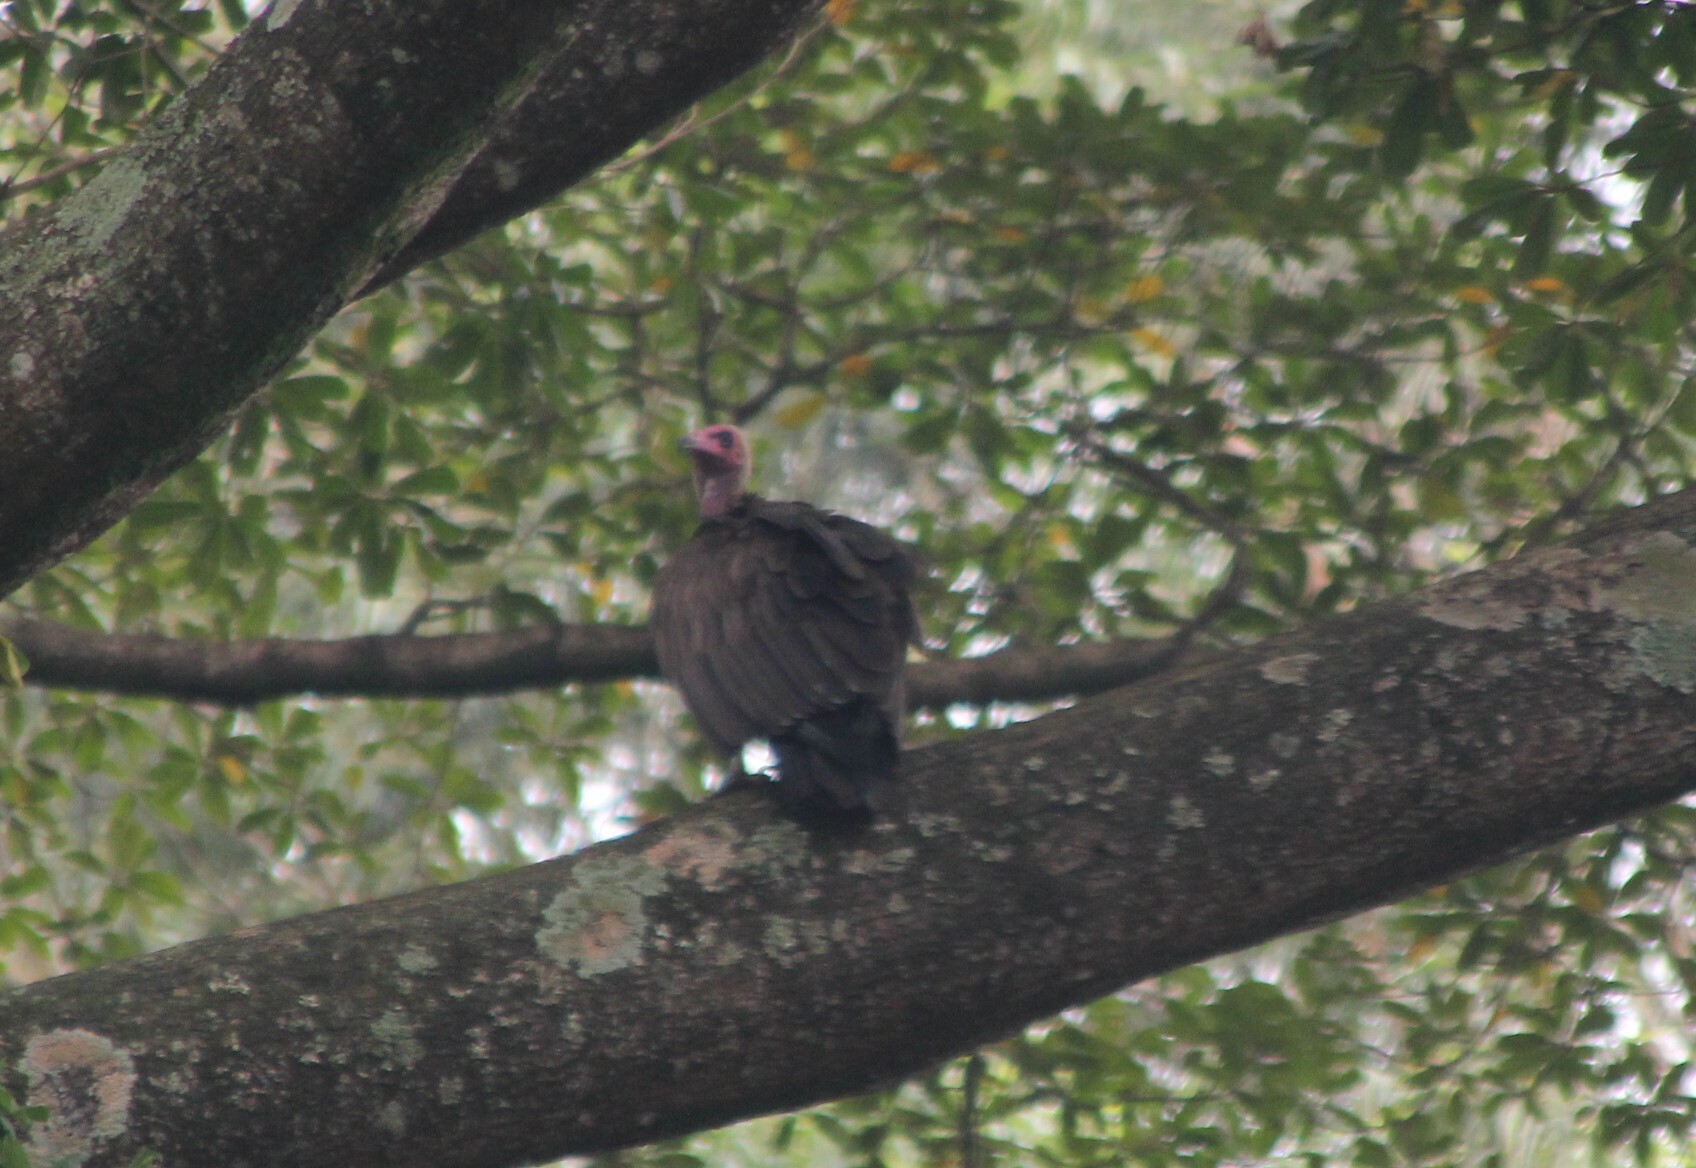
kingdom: Animalia
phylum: Chordata
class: Aves
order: Accipitriformes
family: Accipitridae
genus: Necrosyrtes
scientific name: Necrosyrtes monachus
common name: Hooded vulture
